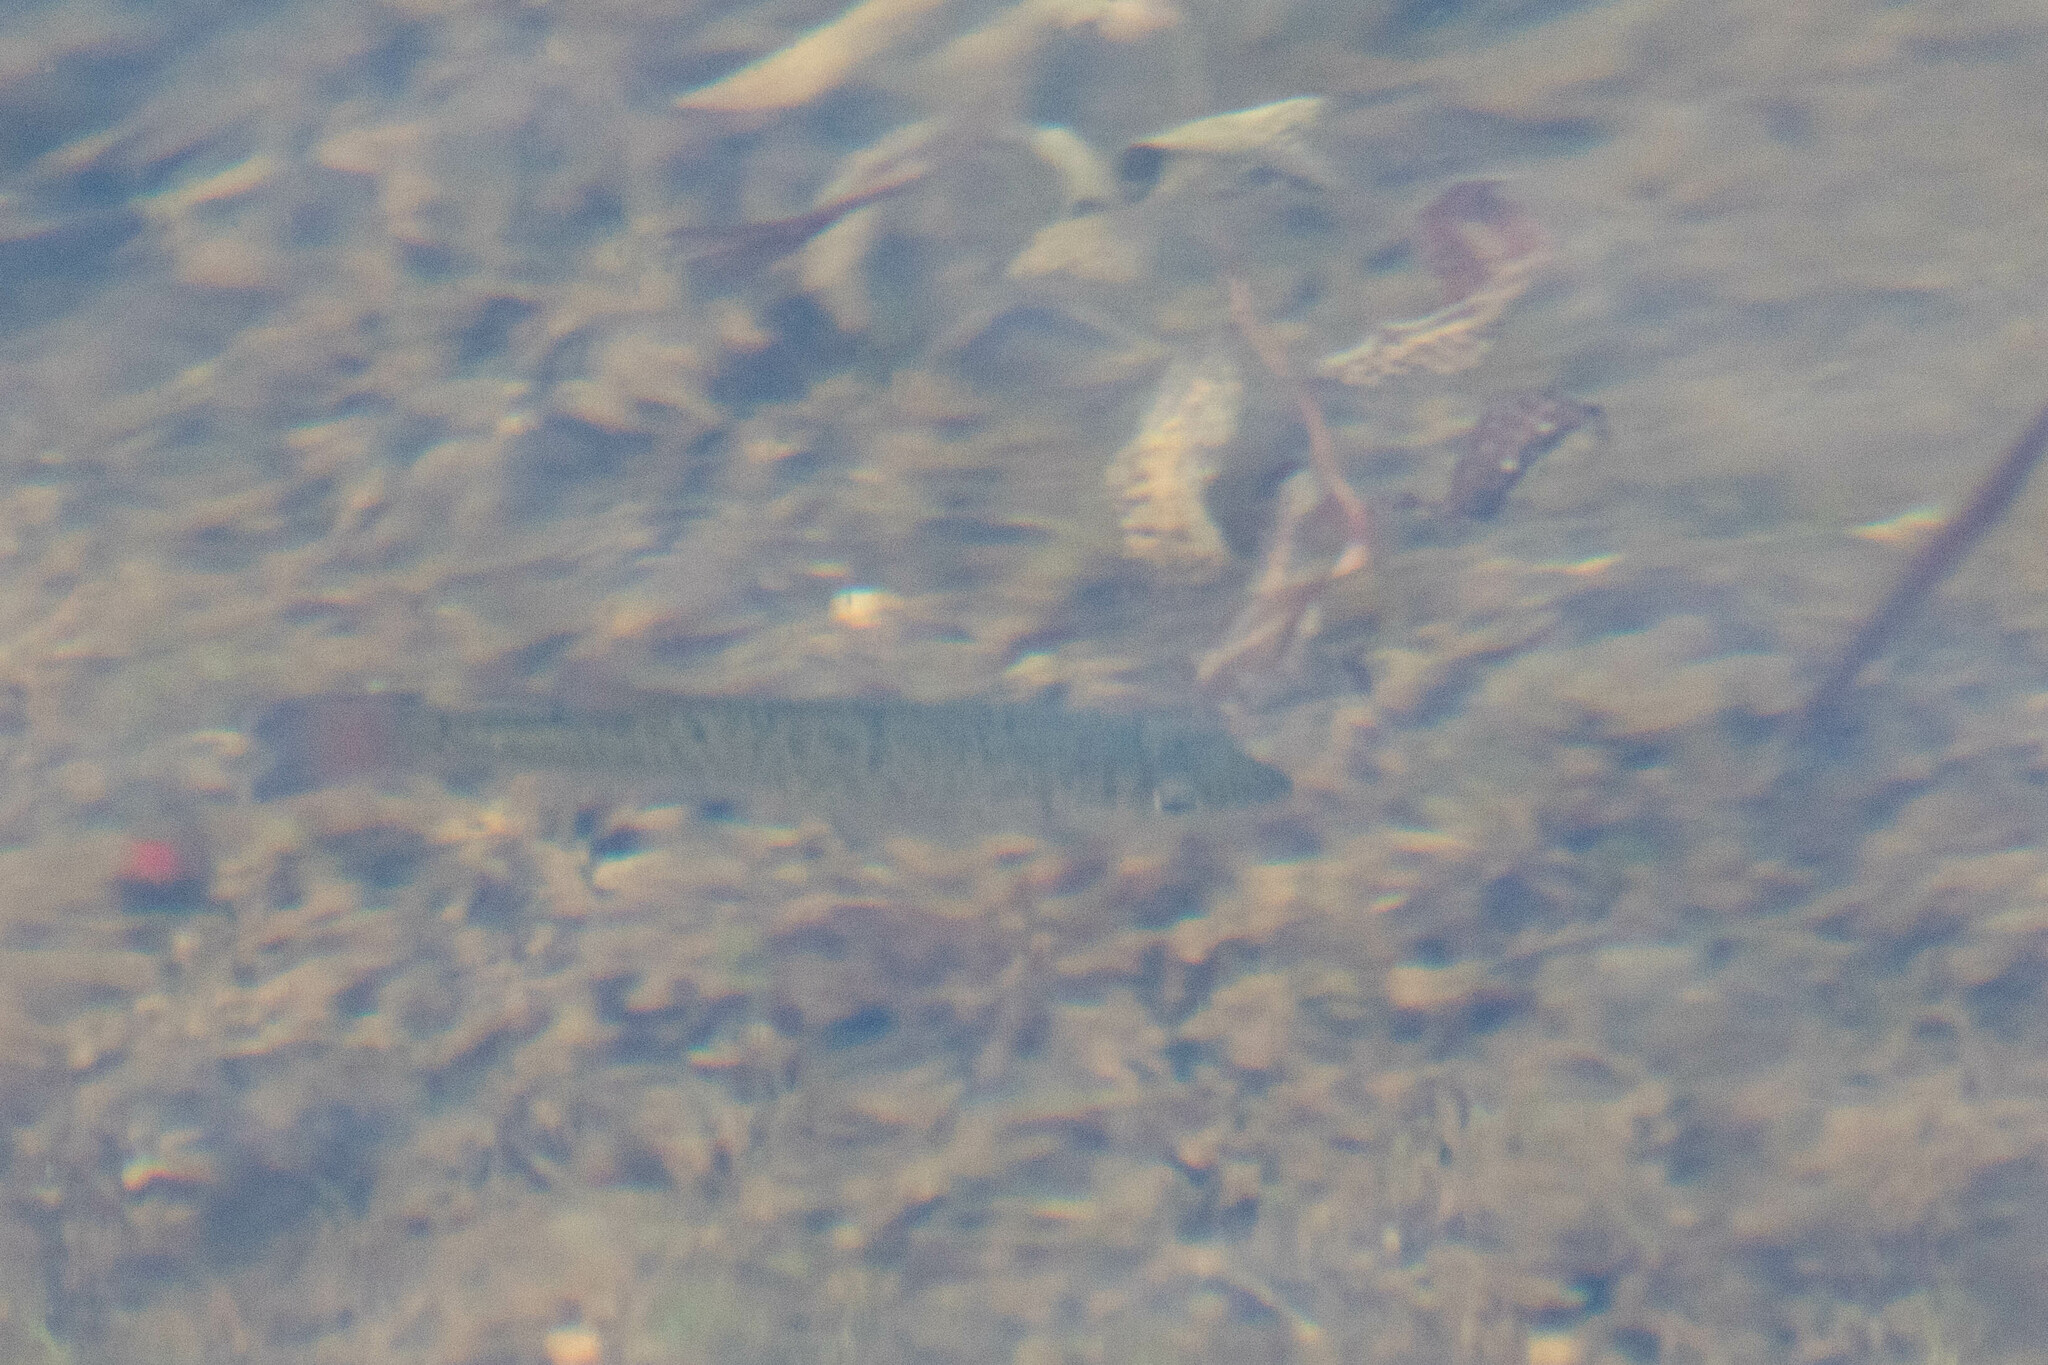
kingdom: Animalia
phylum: Chordata
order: Perciformes
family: Centrarchidae
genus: Micropterus
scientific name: Micropterus dolomieu
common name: Smallmouth bass
